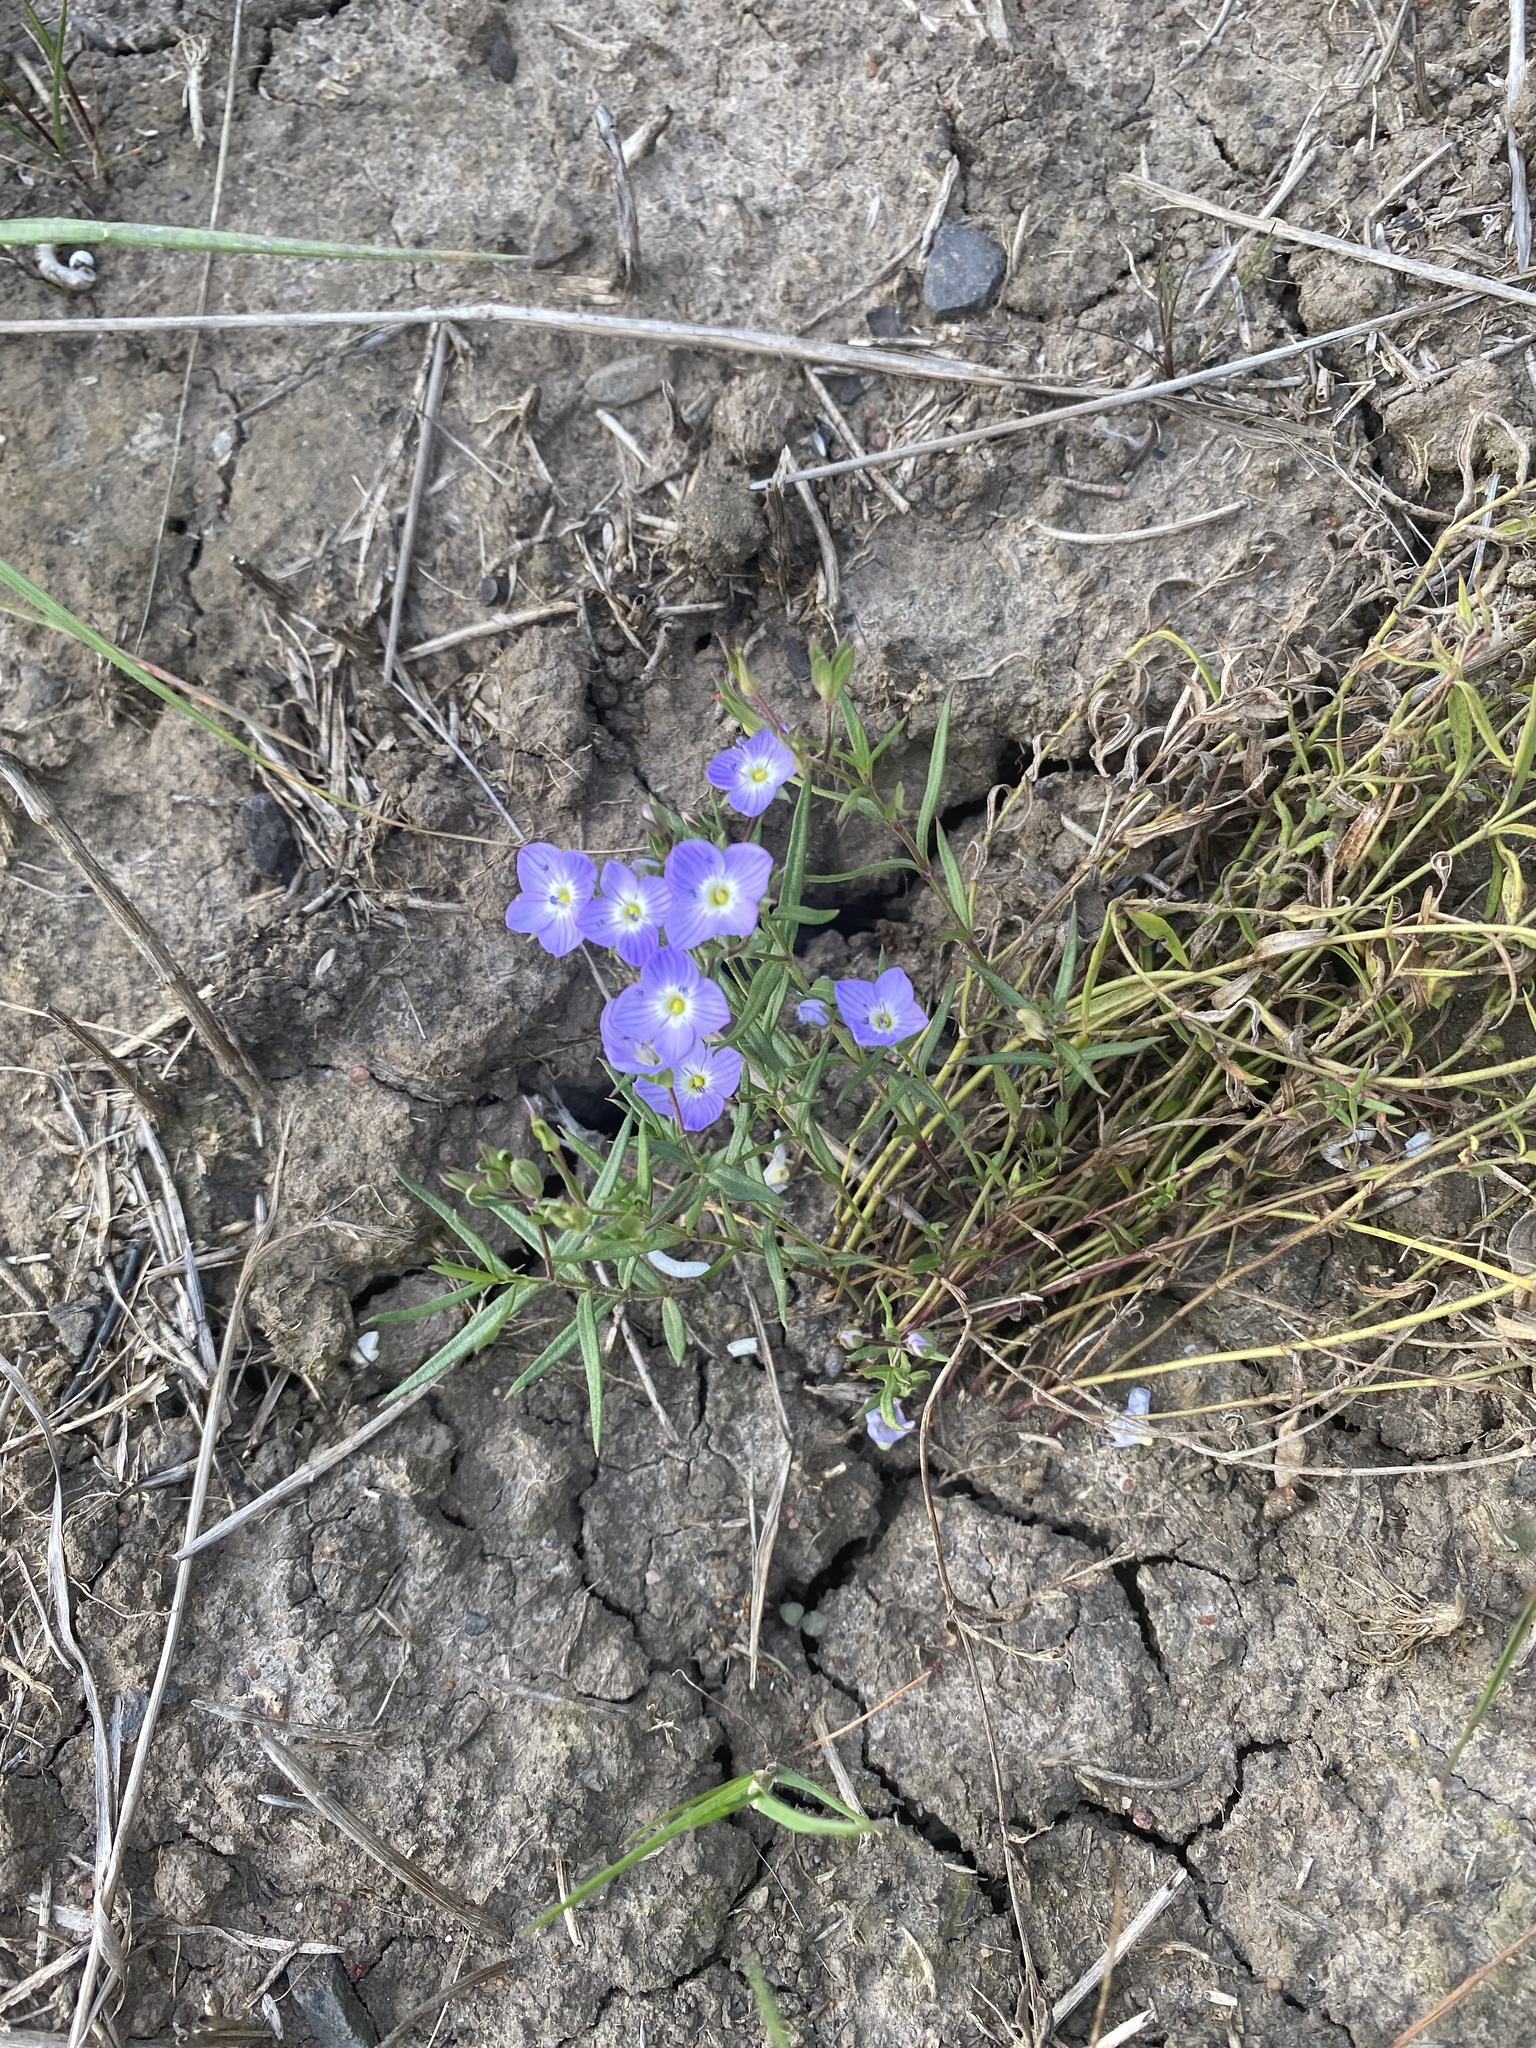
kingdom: Plantae
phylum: Tracheophyta
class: Magnoliopsida
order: Lamiales
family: Plantaginaceae
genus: Veronica
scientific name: Veronica gracilis
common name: Slender speedwell
